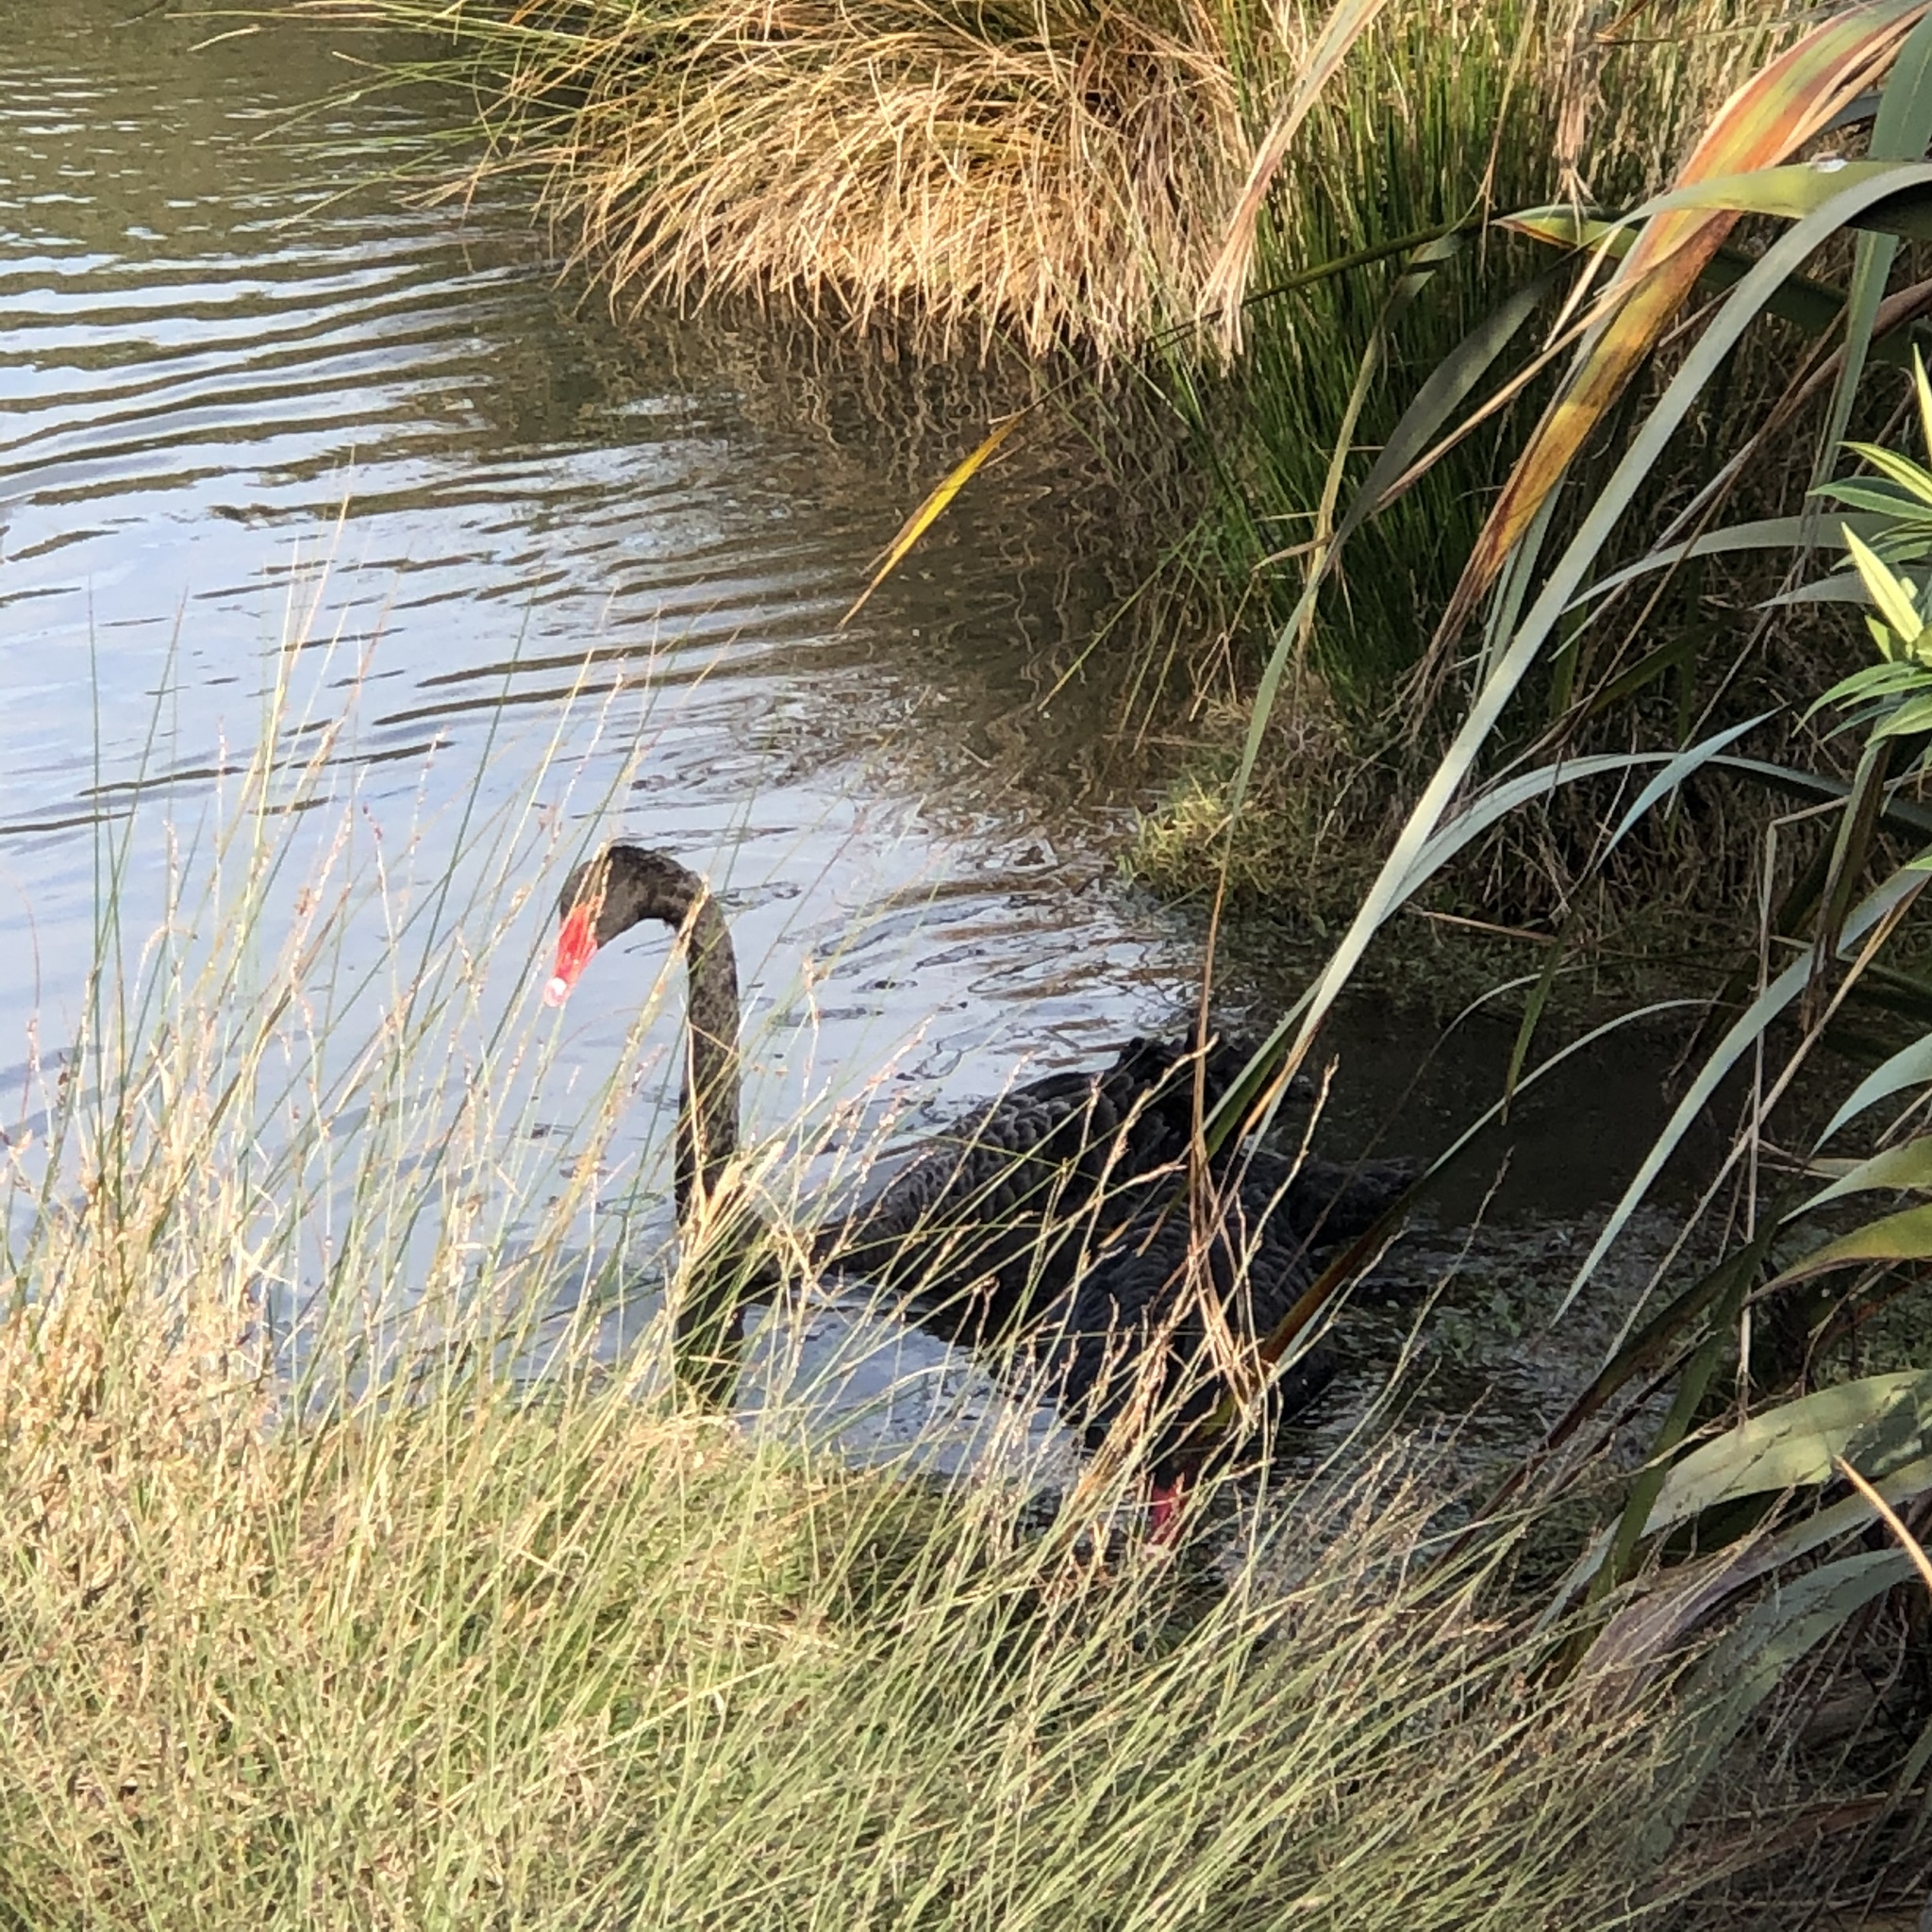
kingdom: Animalia
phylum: Chordata
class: Aves
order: Anseriformes
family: Anatidae
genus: Cygnus
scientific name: Cygnus atratus
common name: Black swan
